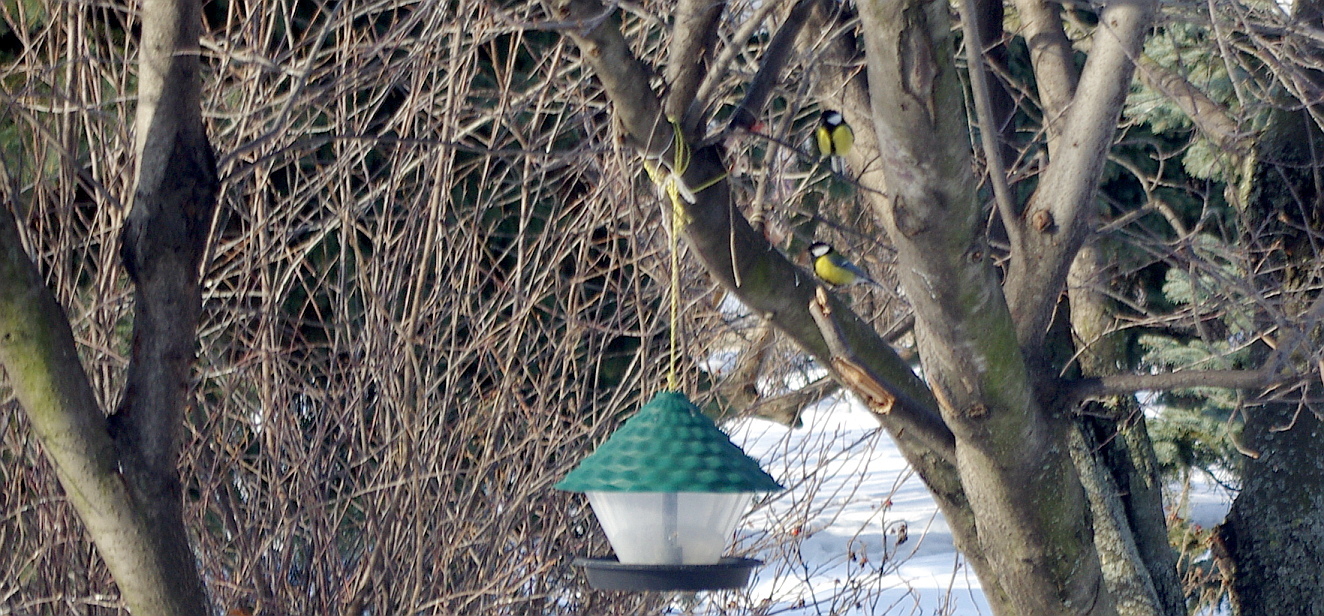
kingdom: Animalia
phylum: Chordata
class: Aves
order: Passeriformes
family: Paridae
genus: Parus
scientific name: Parus major
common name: Great tit
